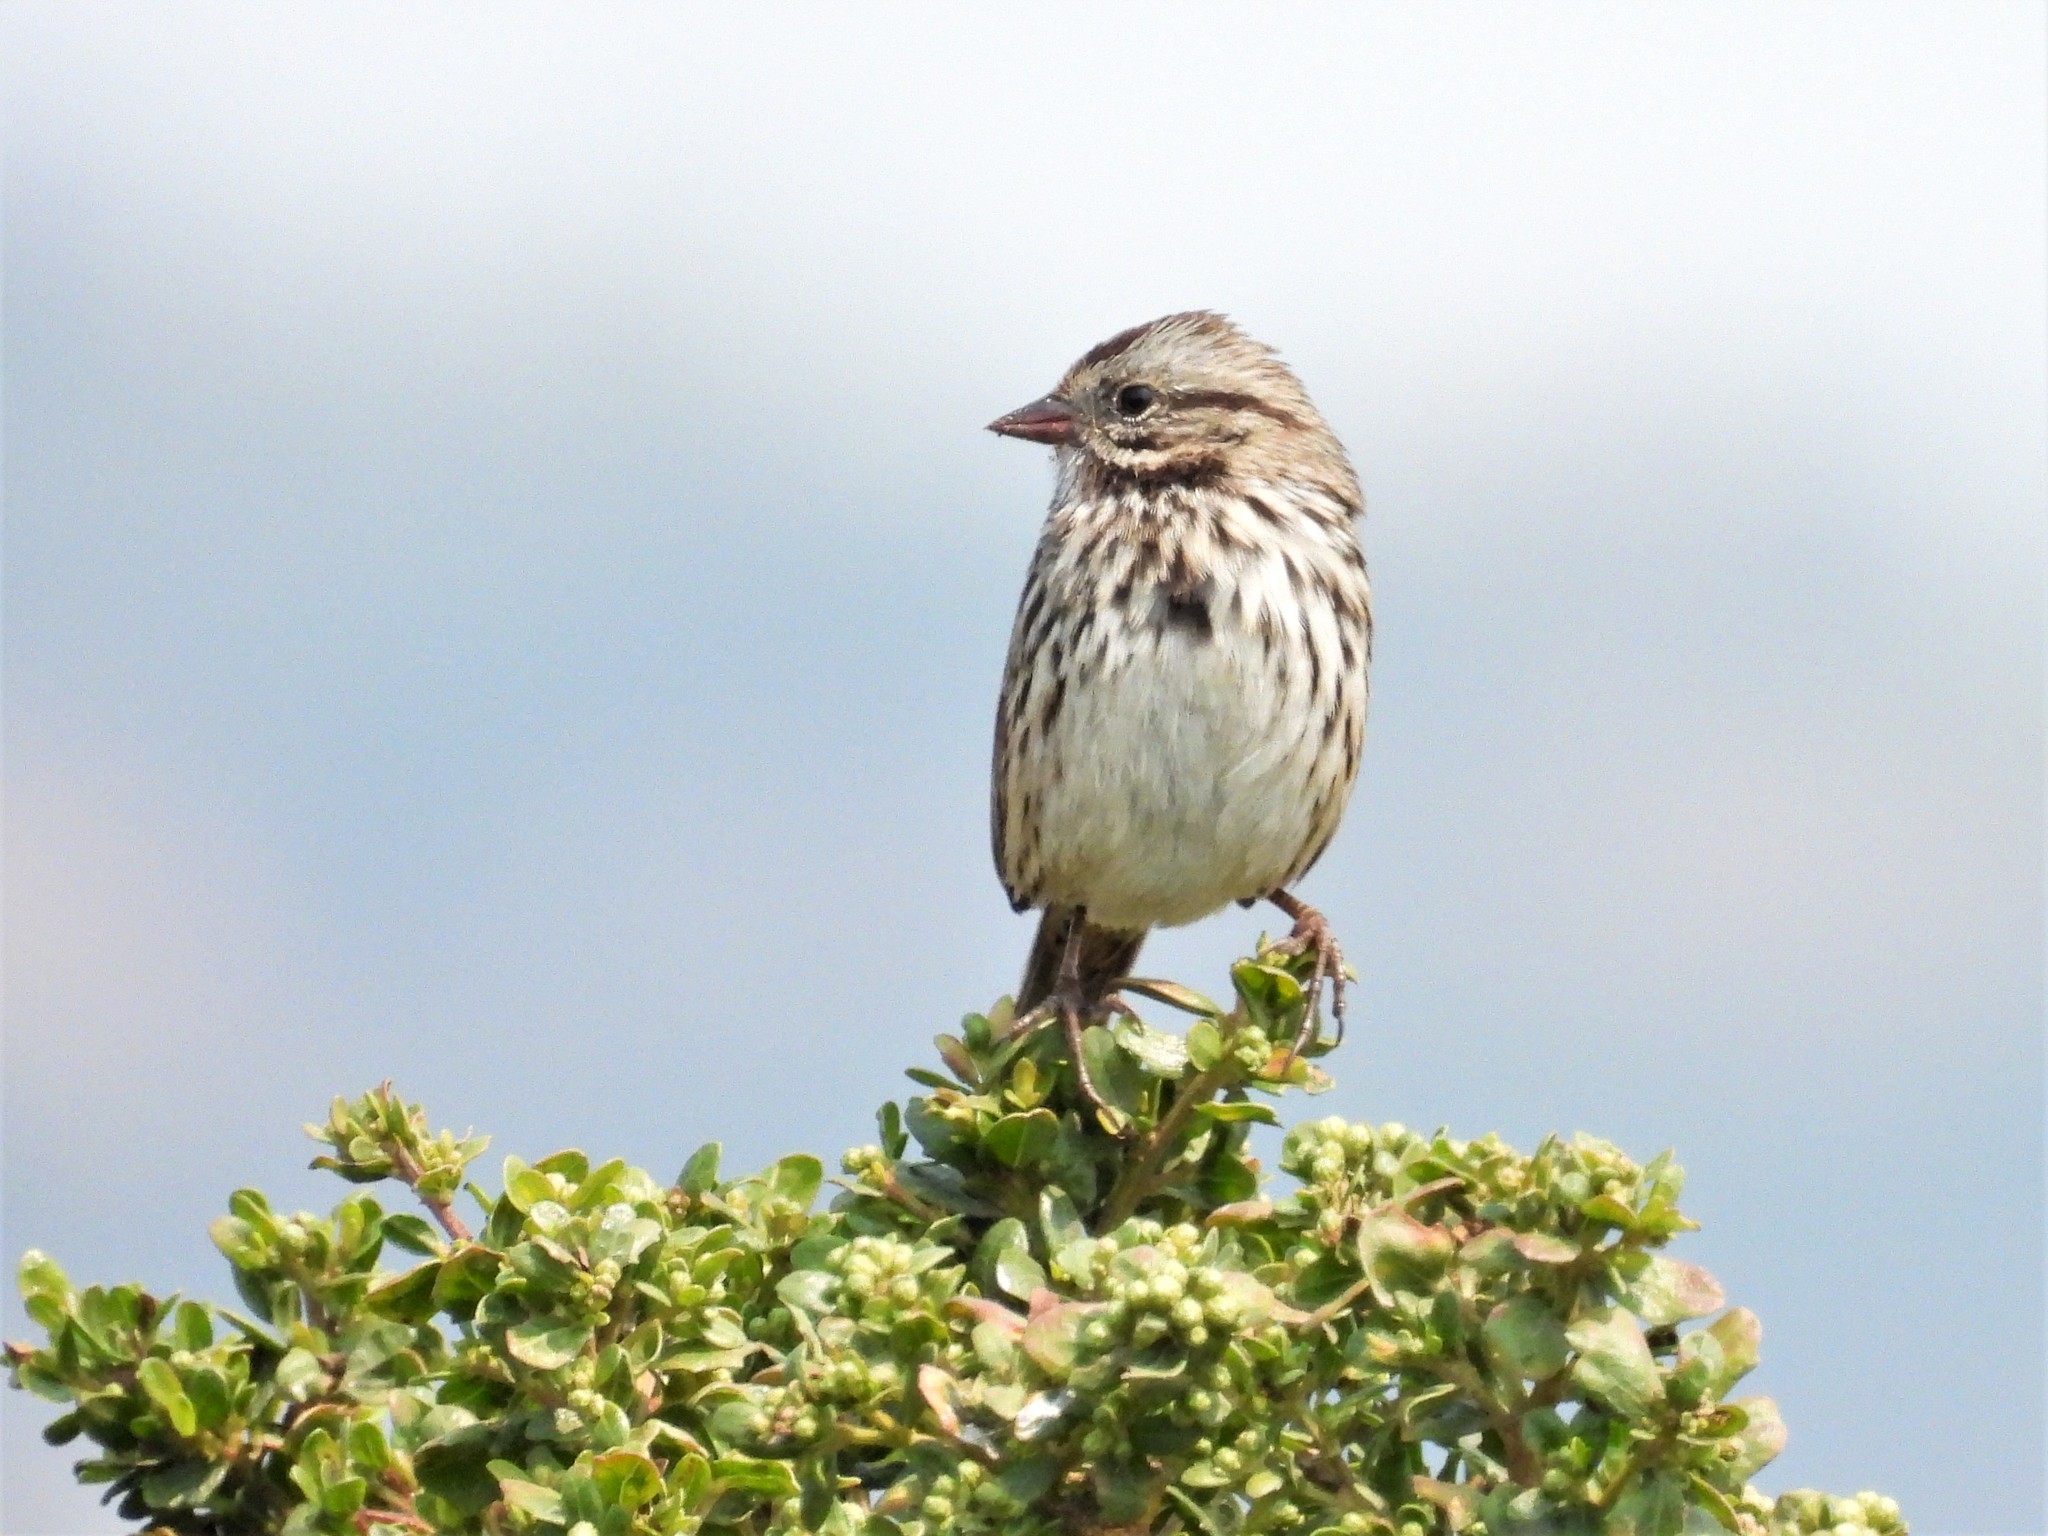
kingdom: Animalia
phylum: Chordata
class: Aves
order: Passeriformes
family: Passerellidae
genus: Melospiza
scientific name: Melospiza melodia
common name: Song sparrow
